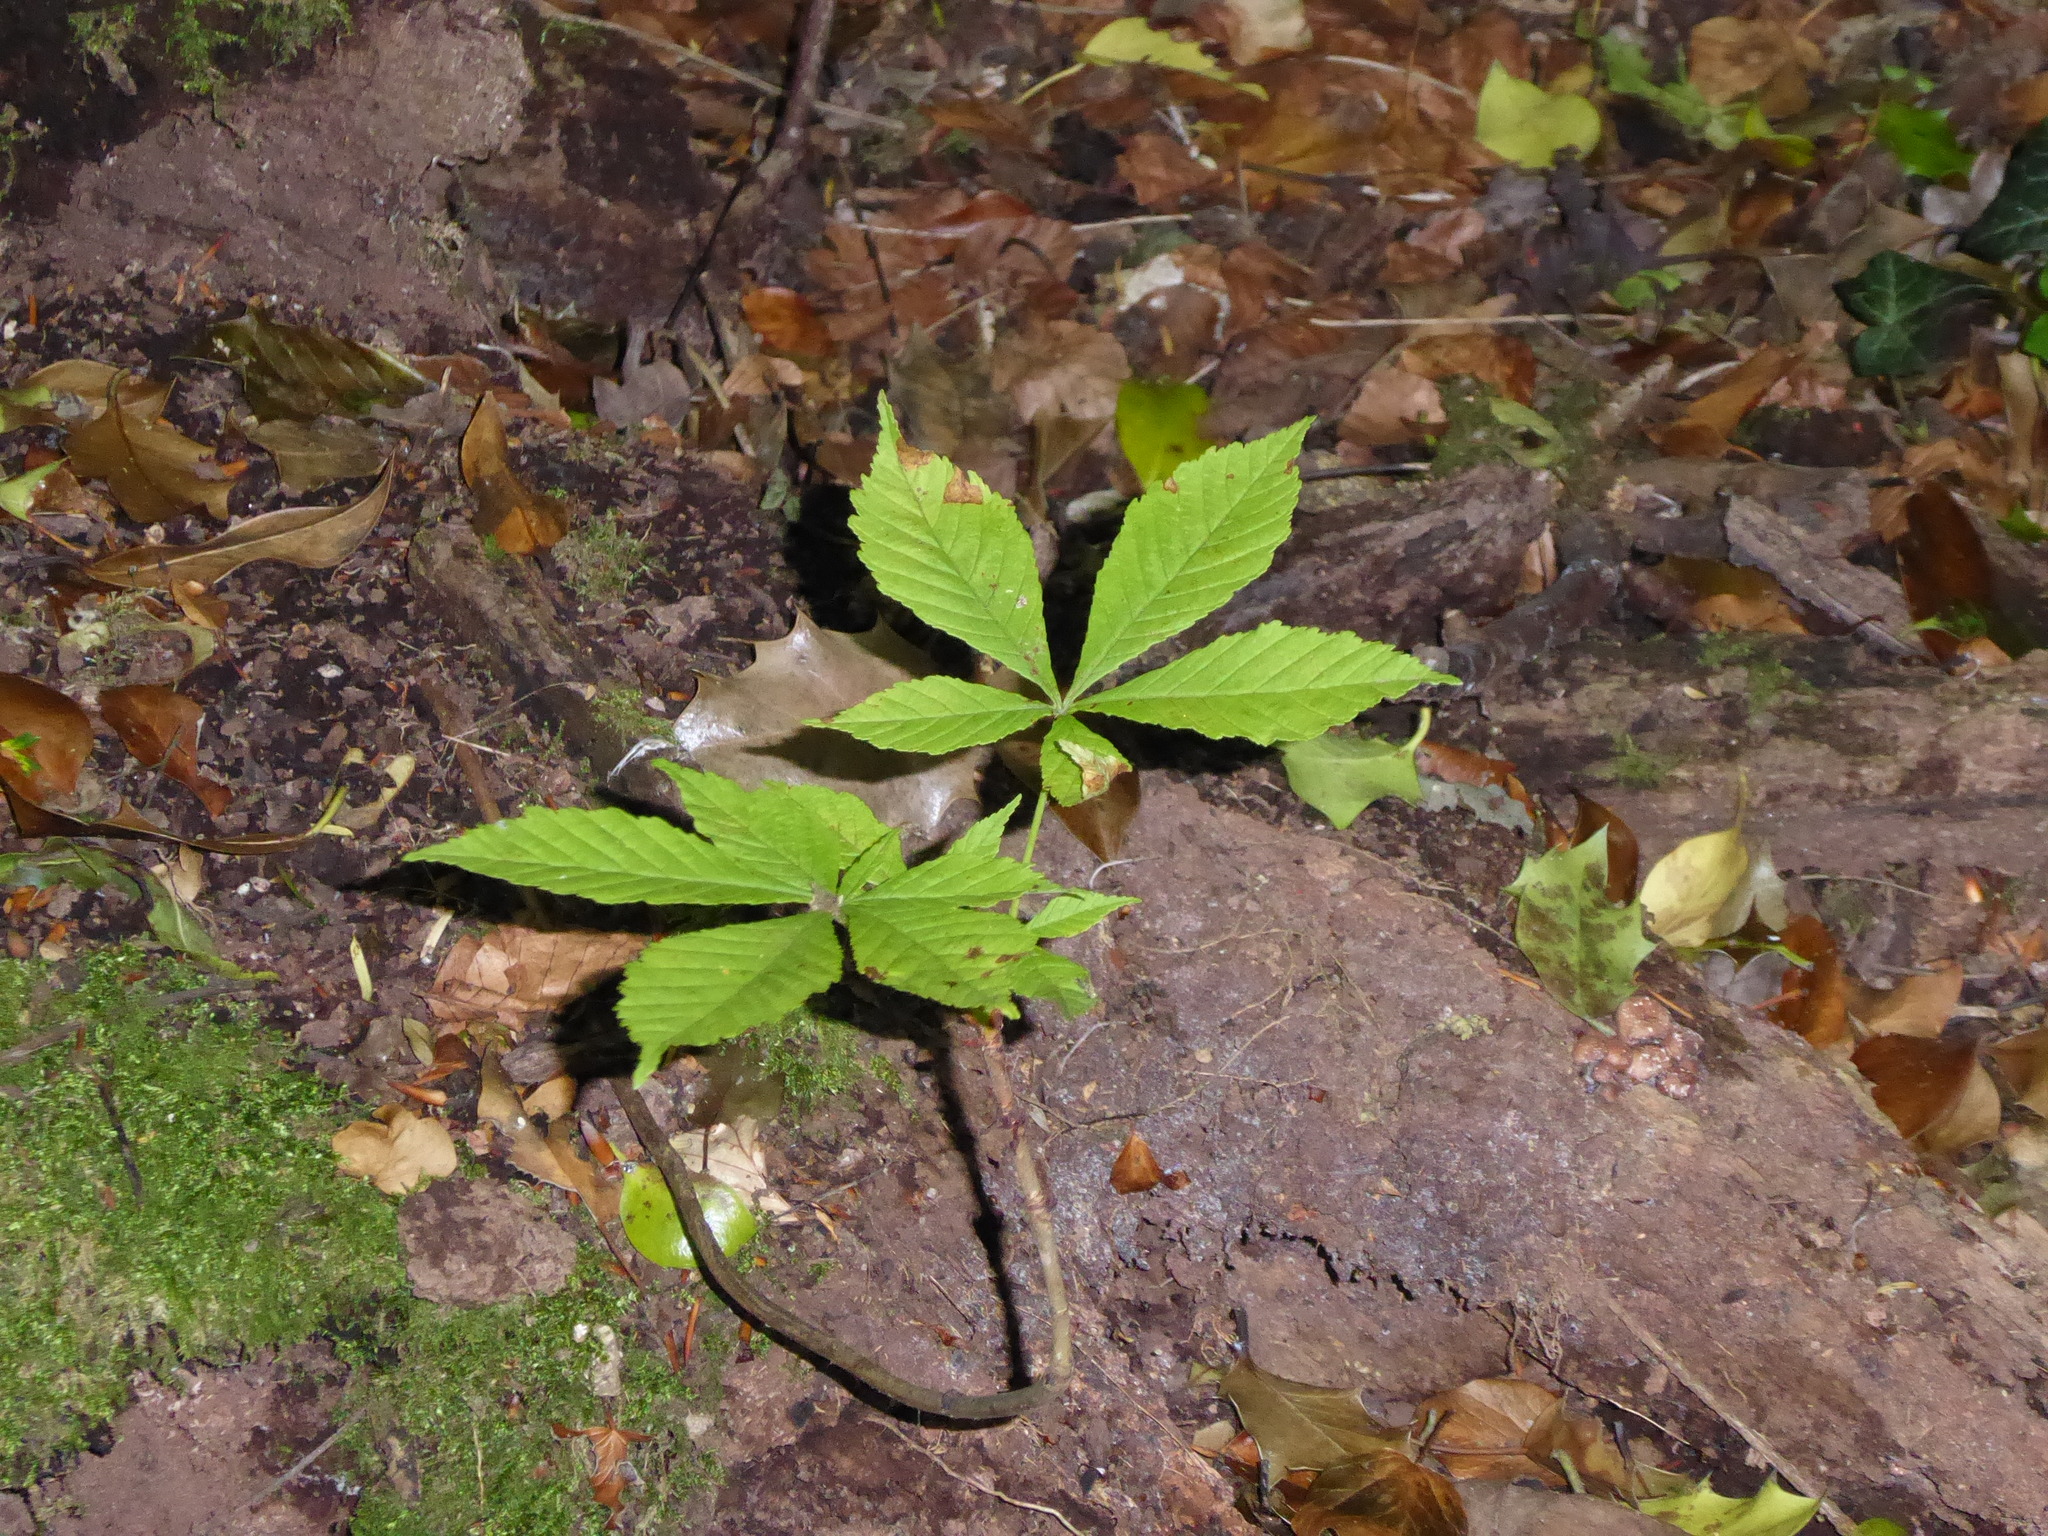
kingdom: Plantae
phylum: Tracheophyta
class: Magnoliopsida
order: Sapindales
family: Sapindaceae
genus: Aesculus
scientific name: Aesculus hippocastanum
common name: Horse-chestnut
